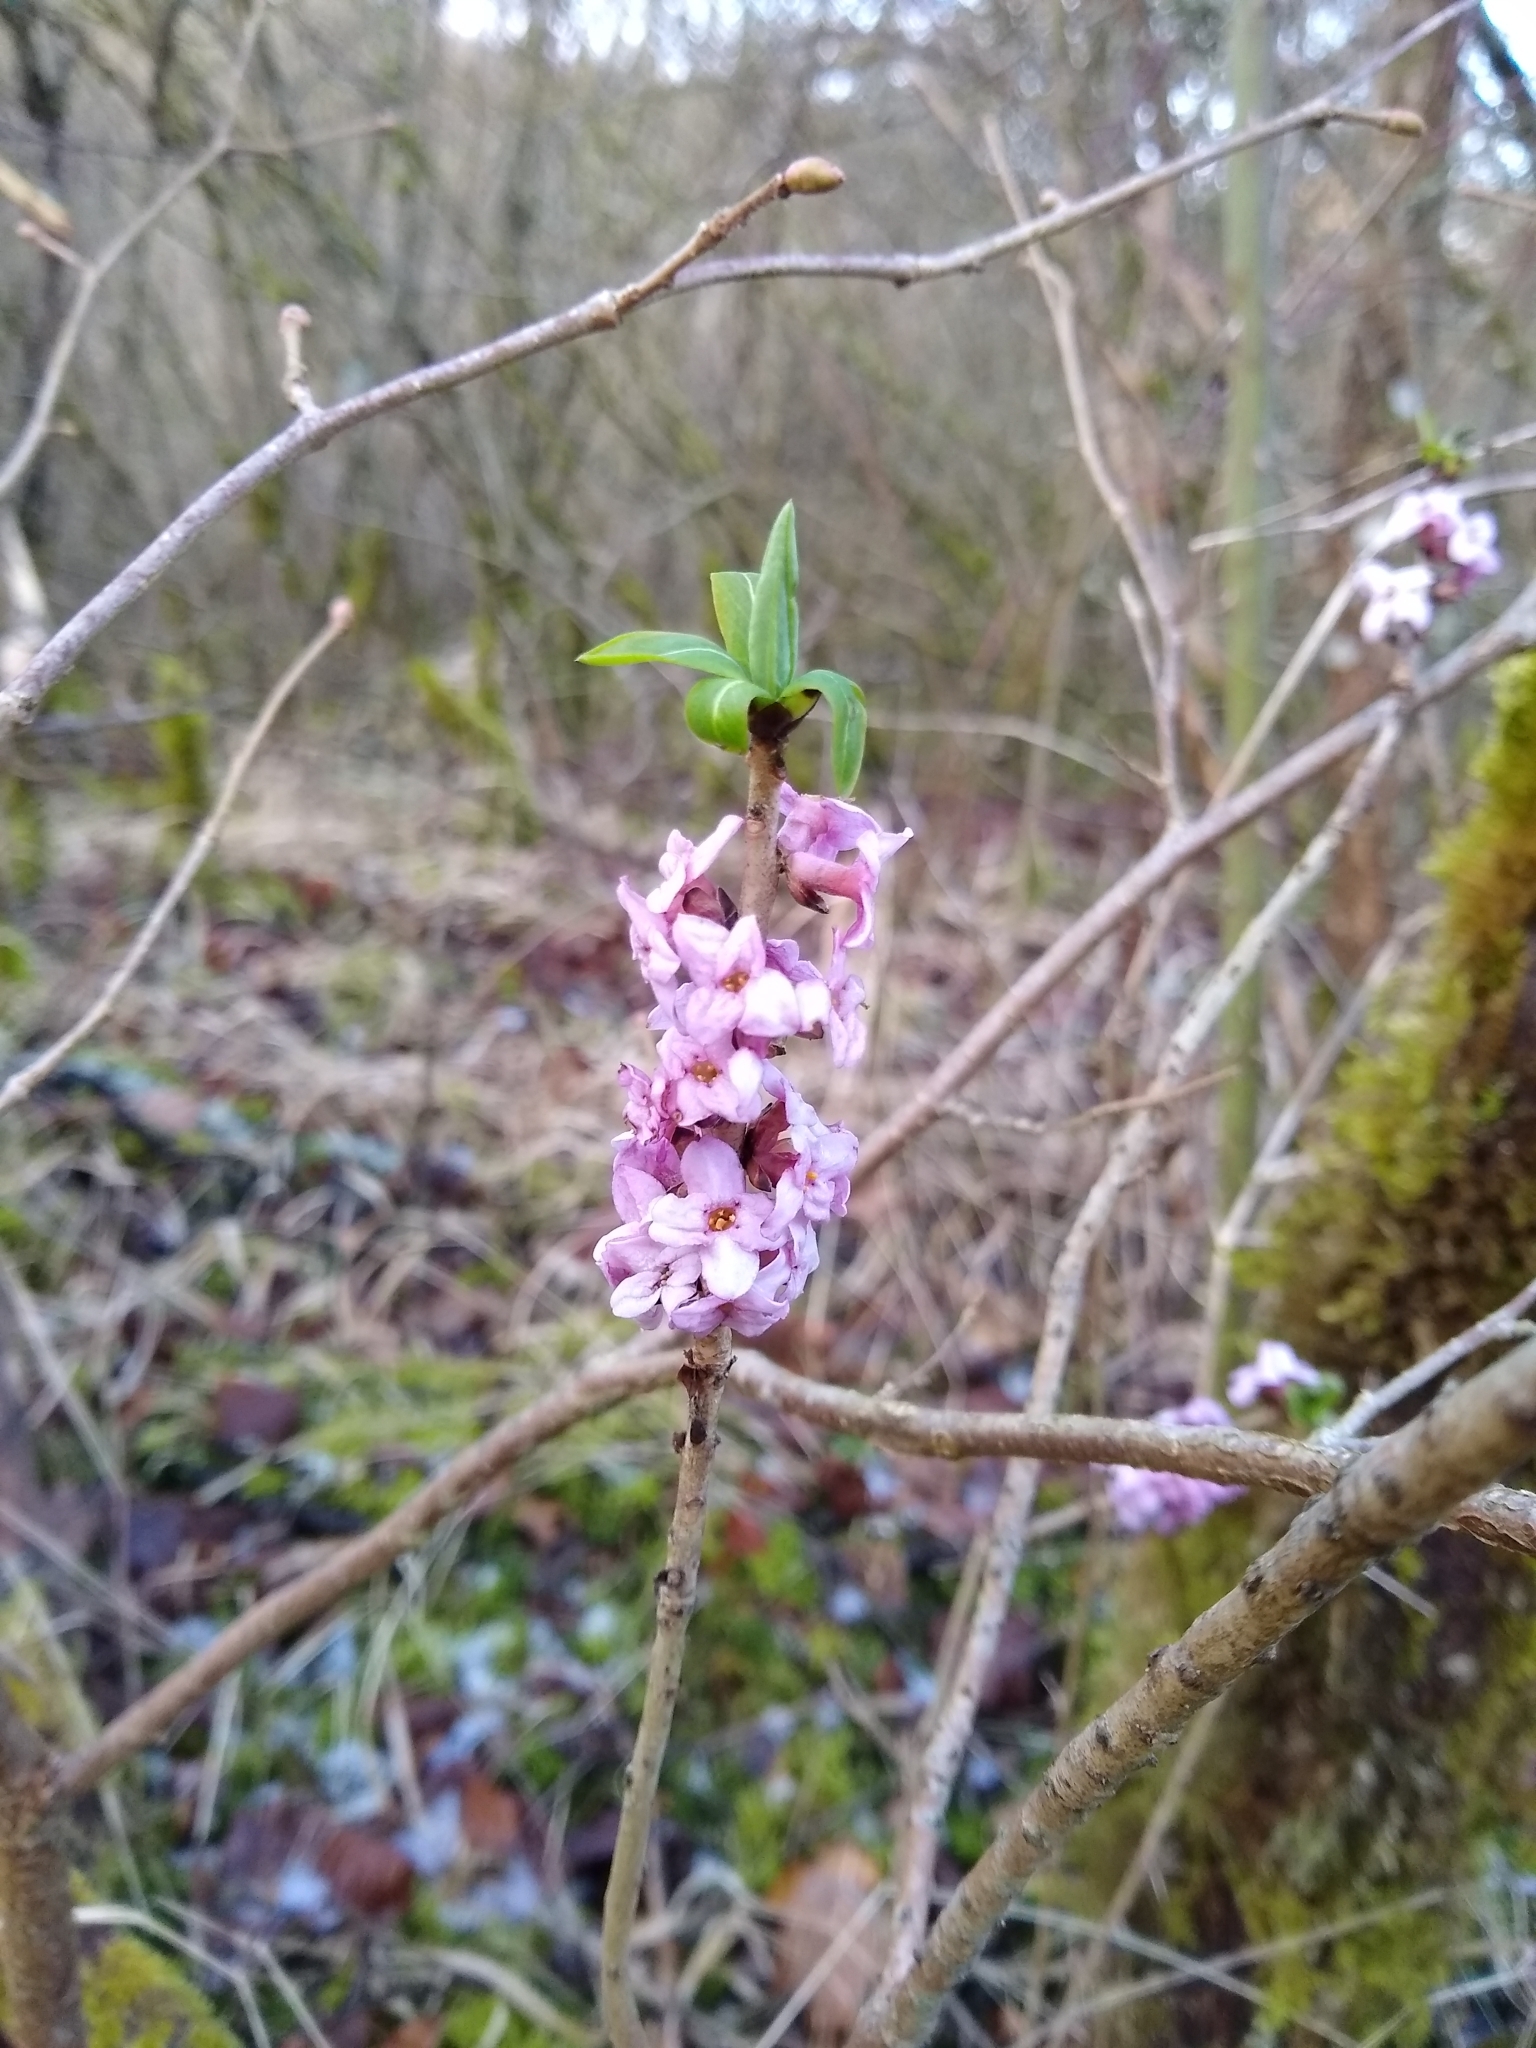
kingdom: Plantae
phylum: Tracheophyta
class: Magnoliopsida
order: Malvales
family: Thymelaeaceae
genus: Daphne
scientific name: Daphne mezereum
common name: Mezereon
